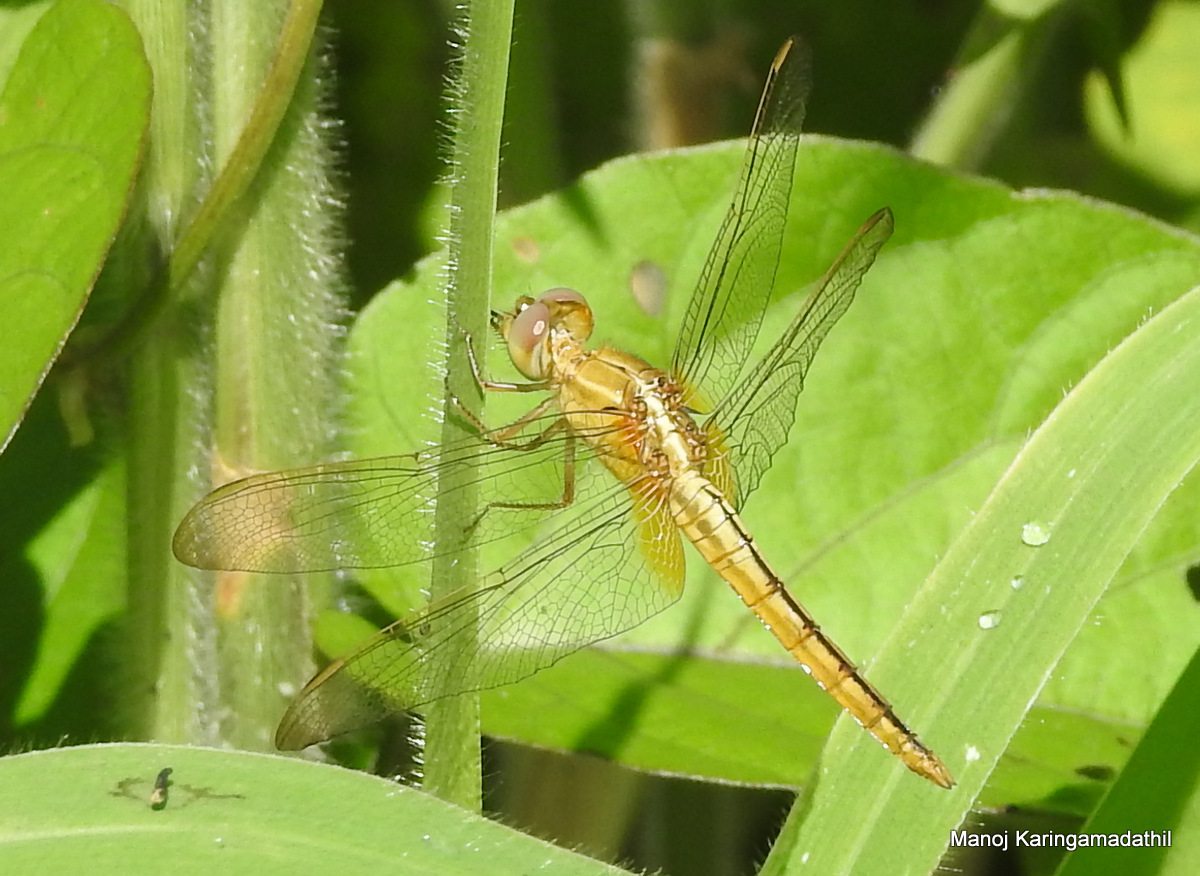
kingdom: Animalia
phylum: Arthropoda
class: Insecta
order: Odonata
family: Libellulidae
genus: Crocothemis
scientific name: Crocothemis servilia
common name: Scarlet skimmer
